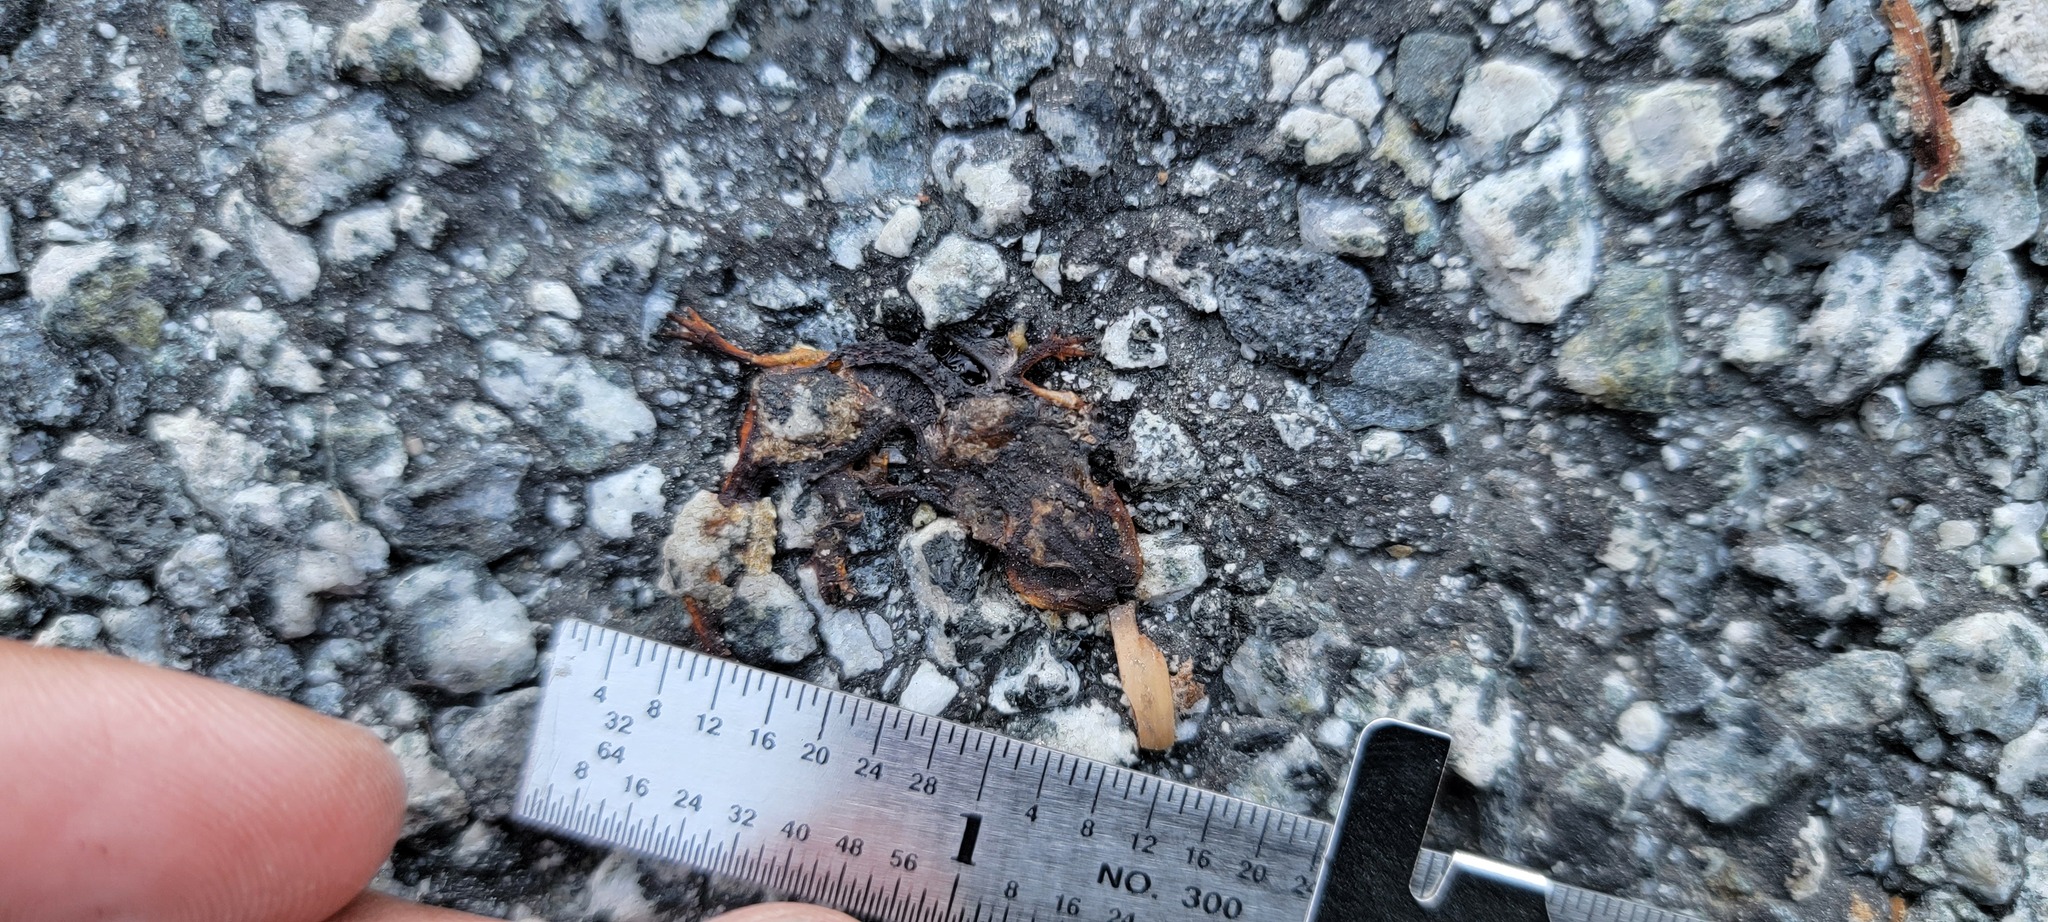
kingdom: Animalia
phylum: Chordata
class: Amphibia
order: Caudata
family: Salamandridae
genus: Taricha
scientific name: Taricha
